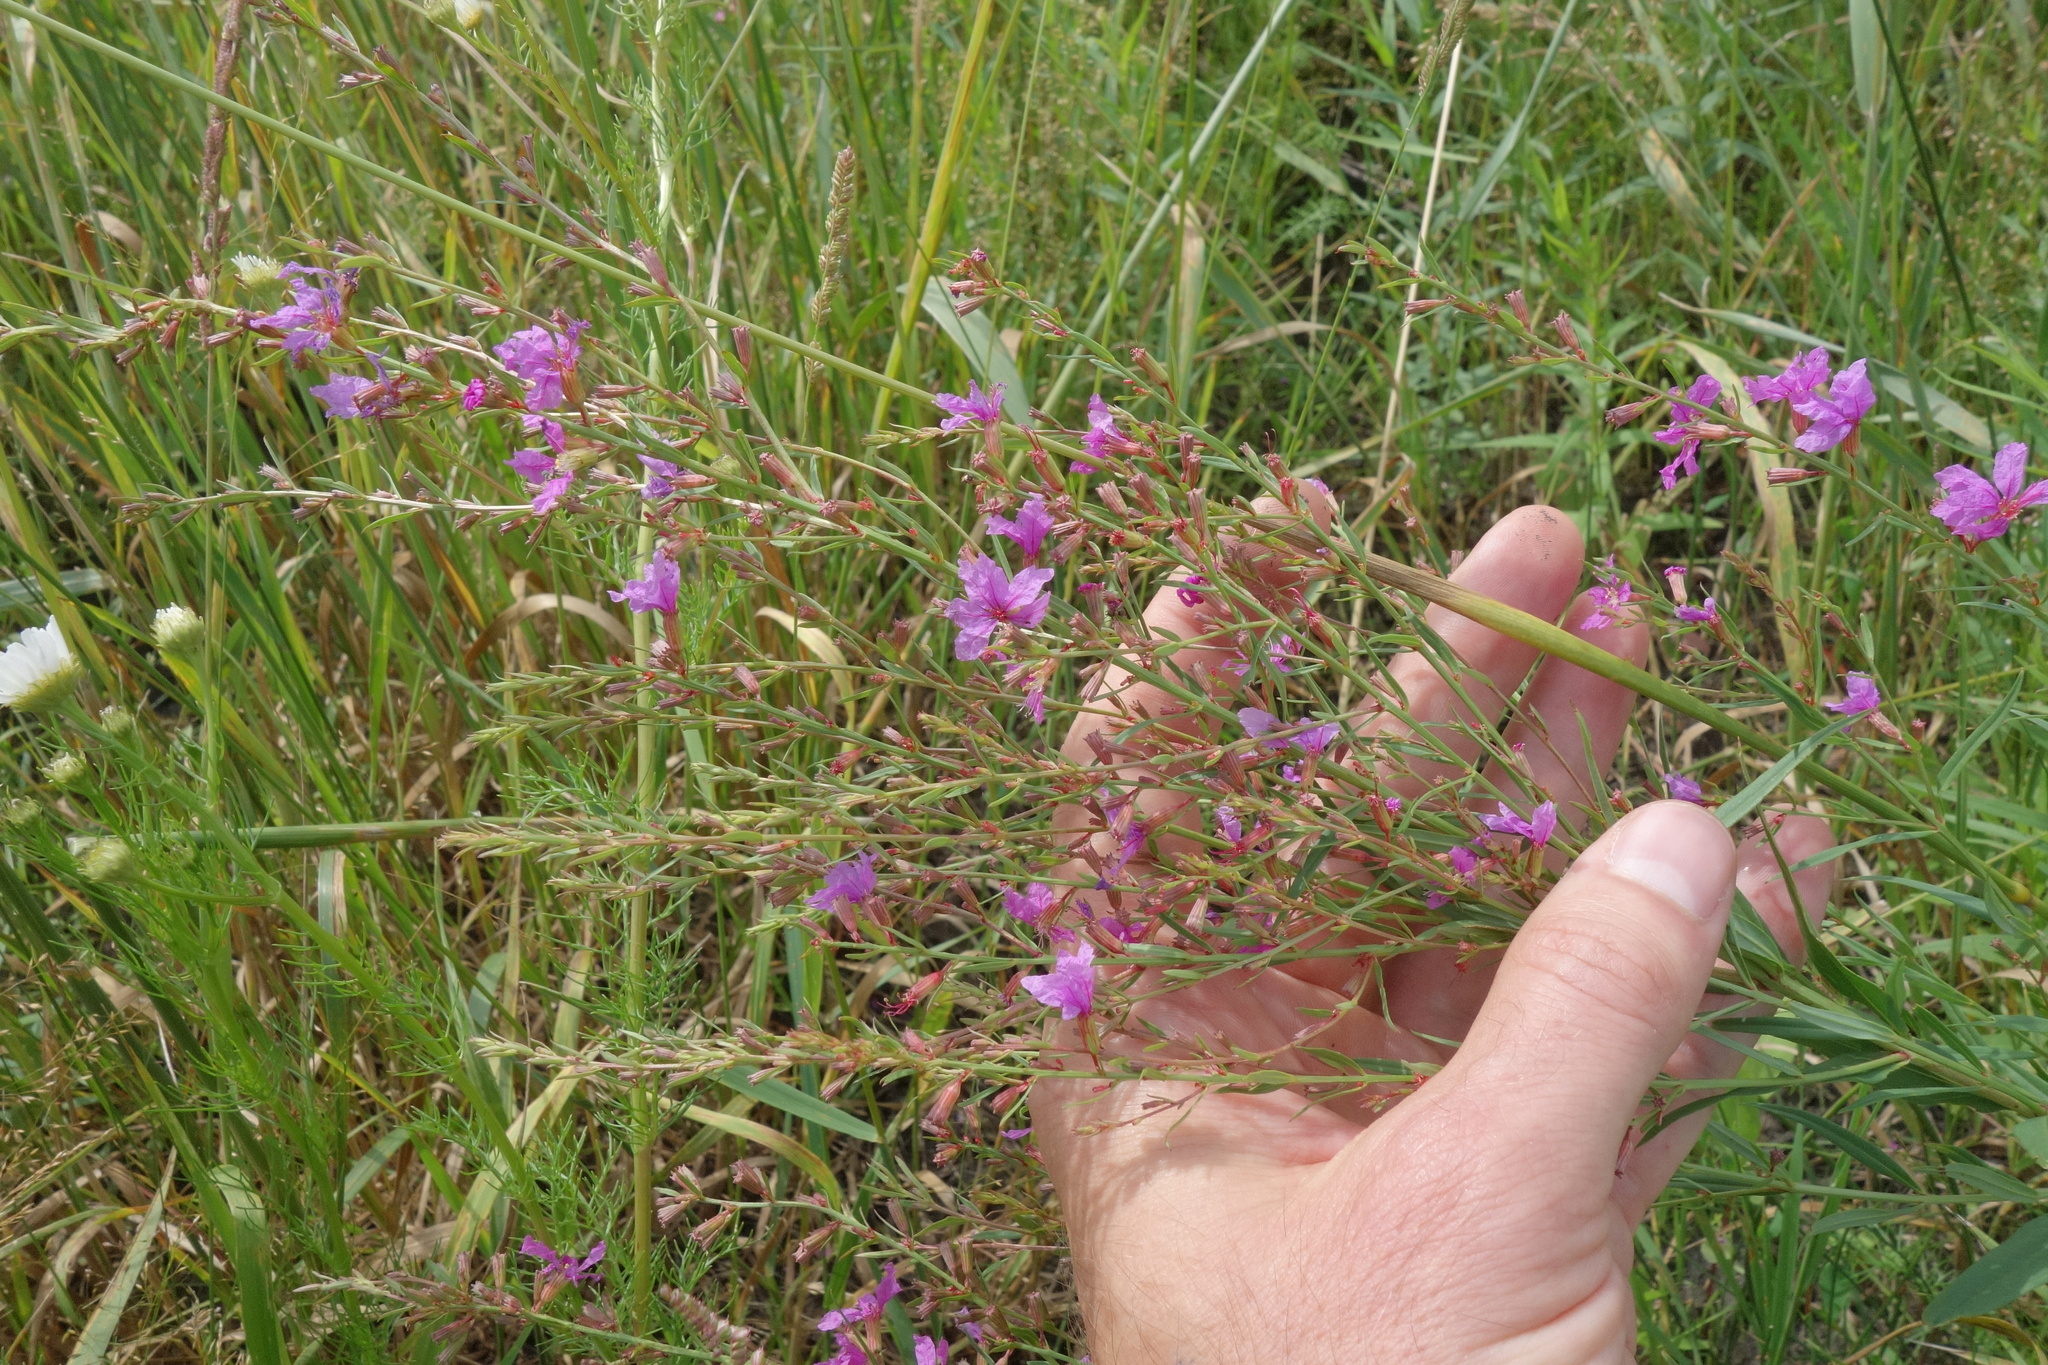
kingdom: Plantae
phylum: Tracheophyta
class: Magnoliopsida
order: Myrtales
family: Lythraceae
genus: Lythrum
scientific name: Lythrum virgatum
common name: European wand loosestrife
